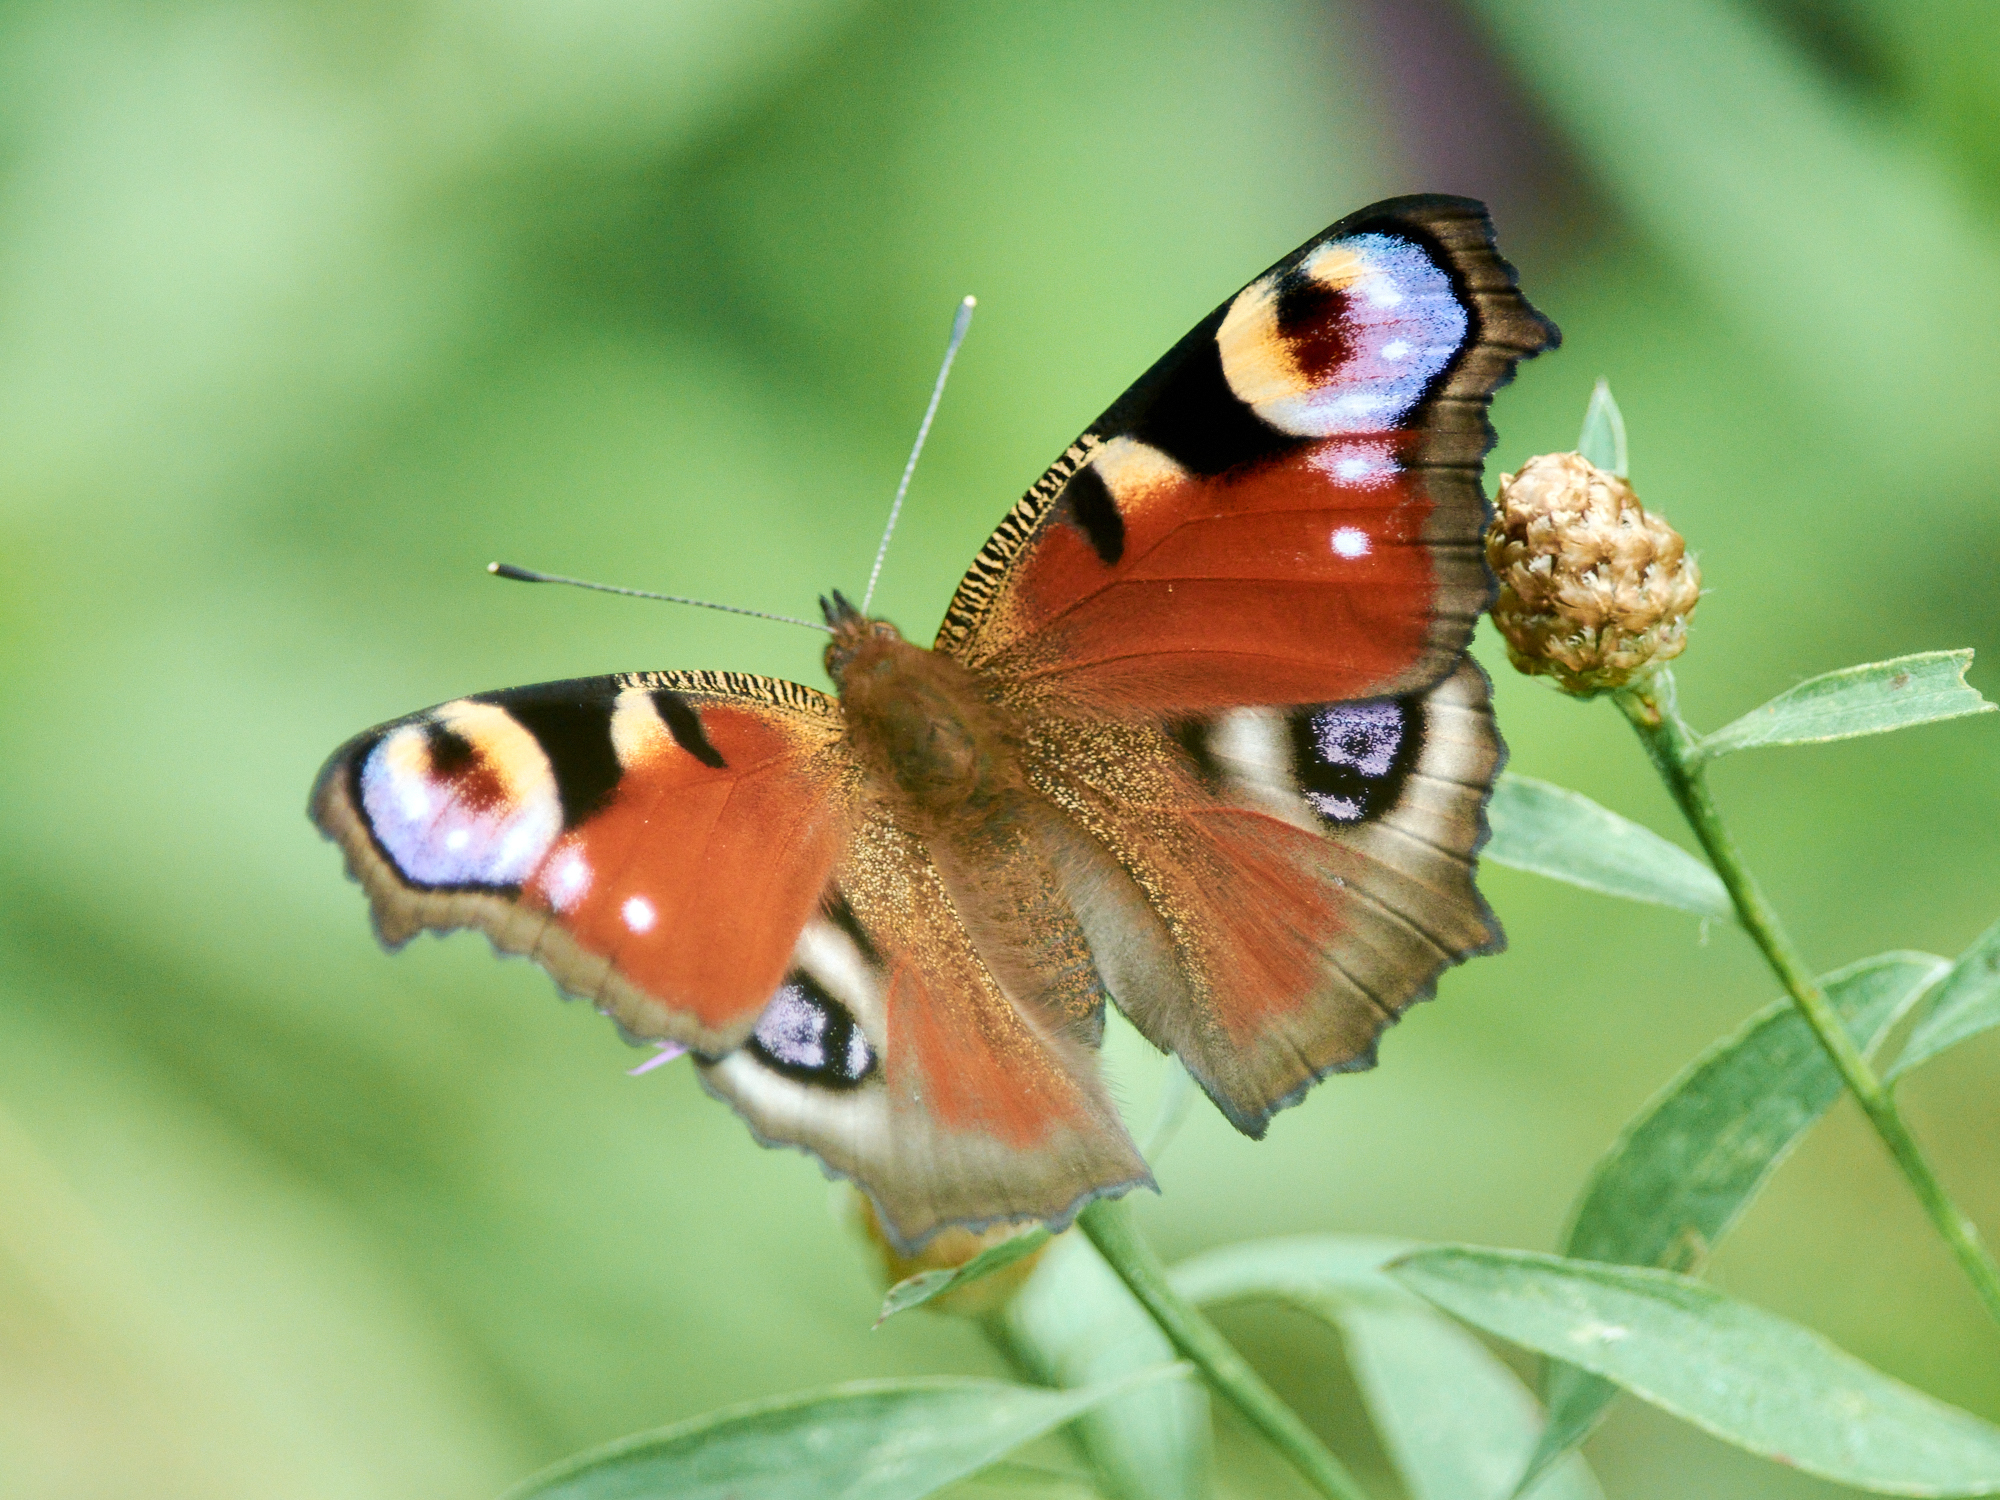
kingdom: Animalia
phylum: Arthropoda
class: Insecta
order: Lepidoptera
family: Nymphalidae
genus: Aglais
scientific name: Aglais io
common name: Peacock
